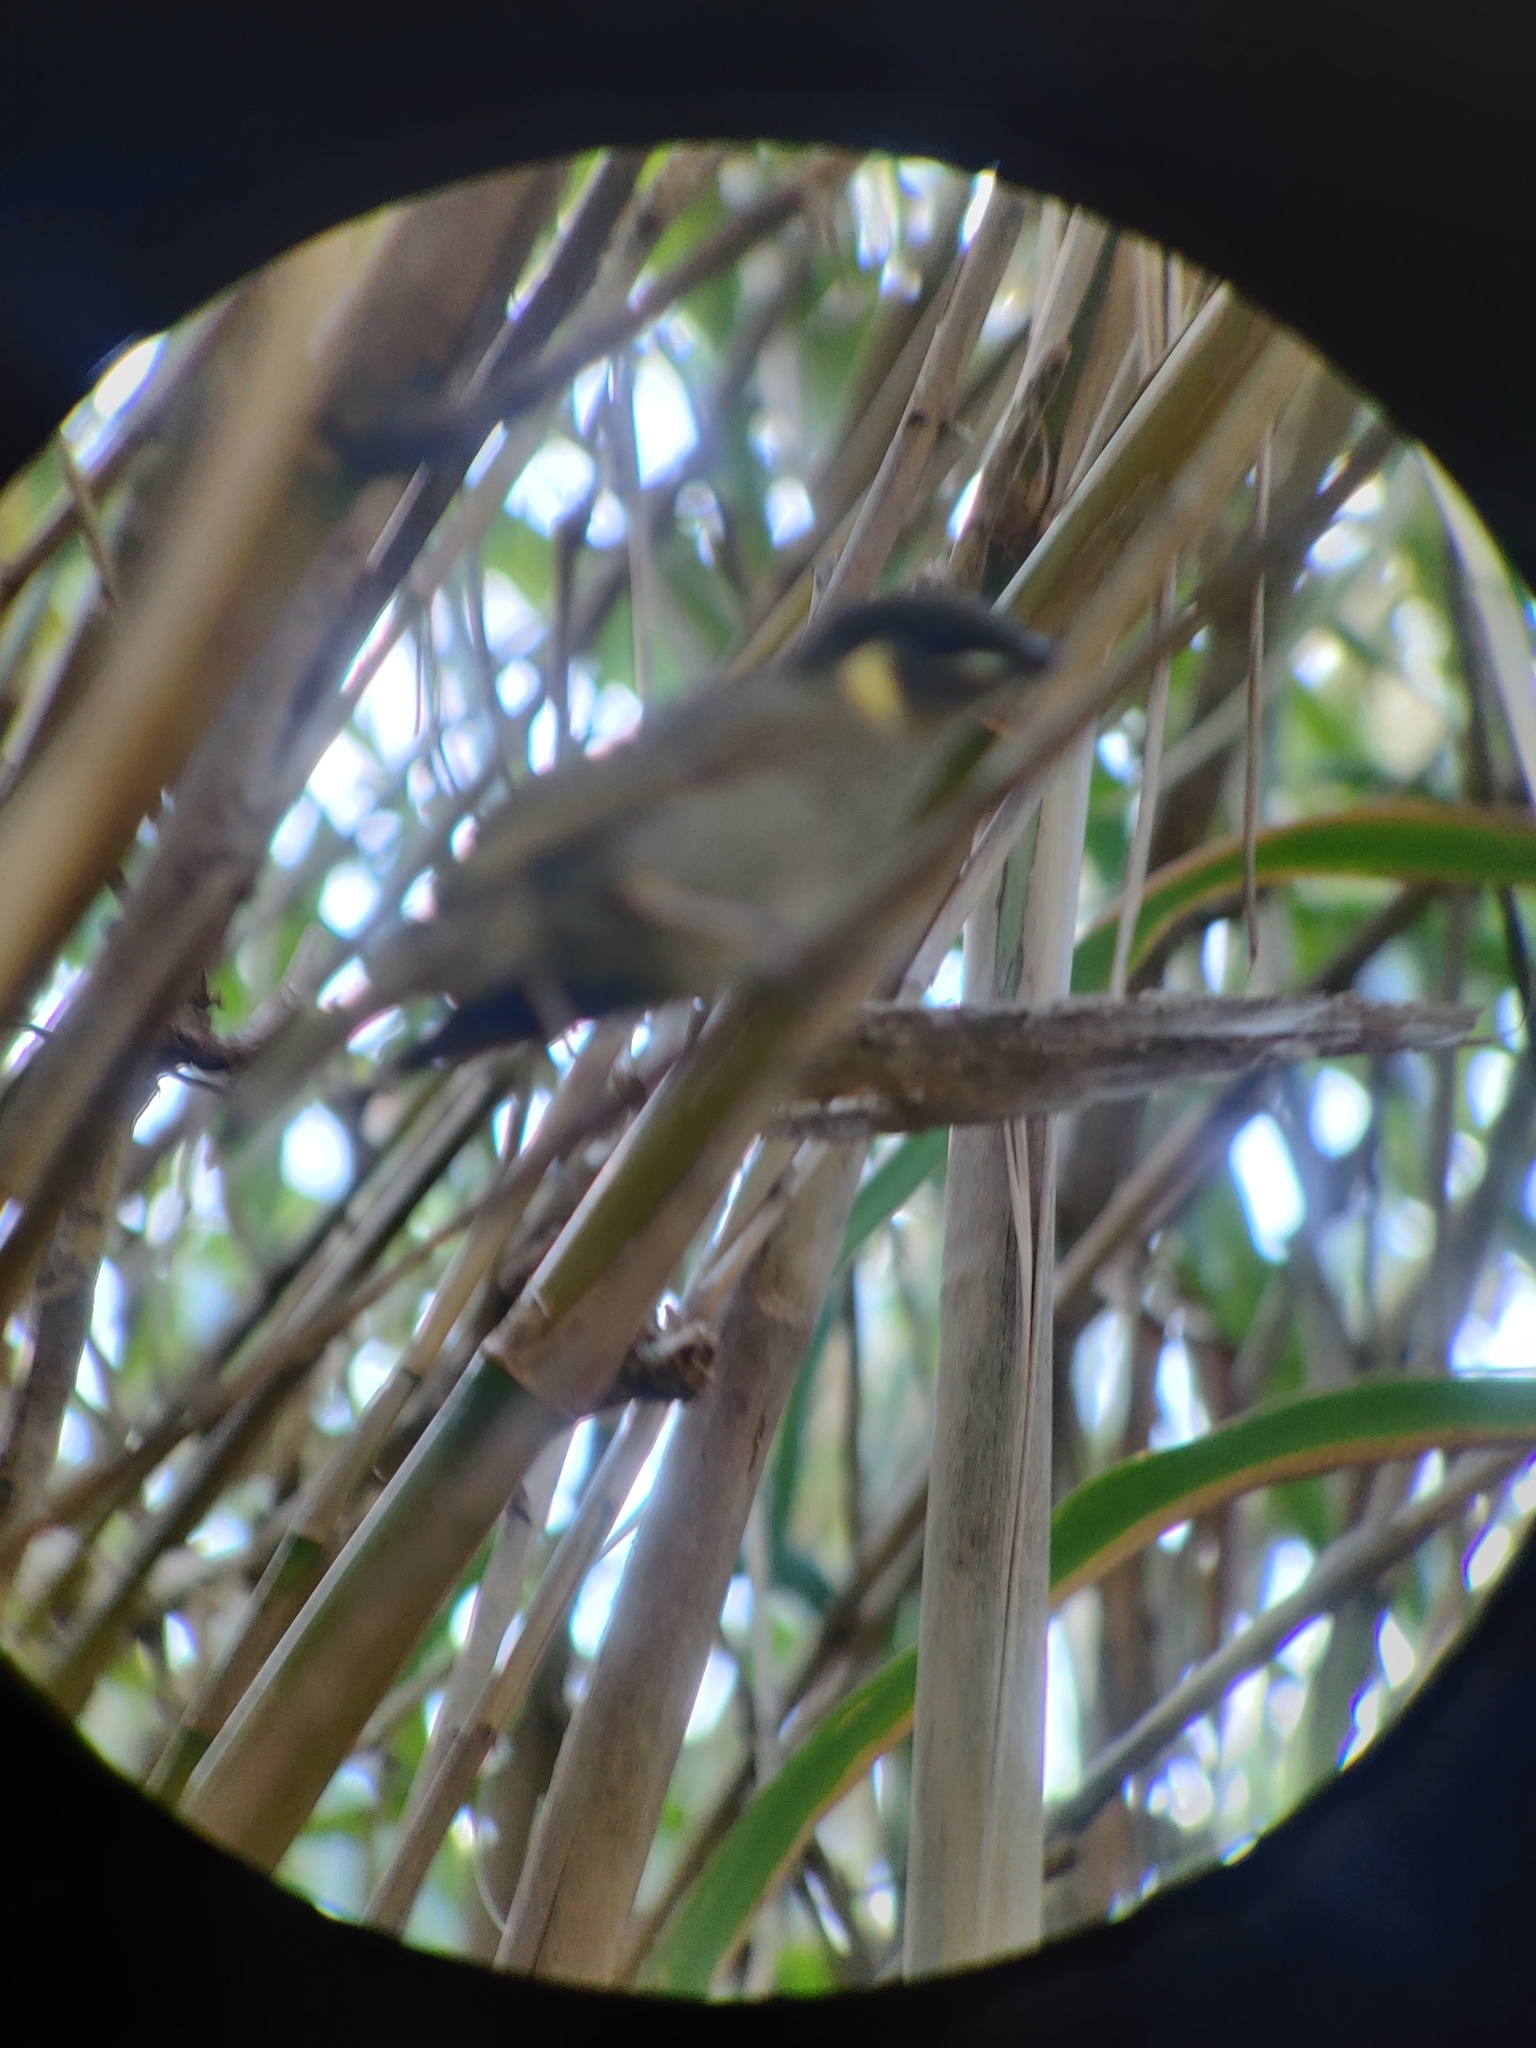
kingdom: Animalia
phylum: Chordata
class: Aves
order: Passeriformes
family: Meliphagidae
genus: Meliphaga
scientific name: Meliphaga lewinii
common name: Lewin's honeyeater
